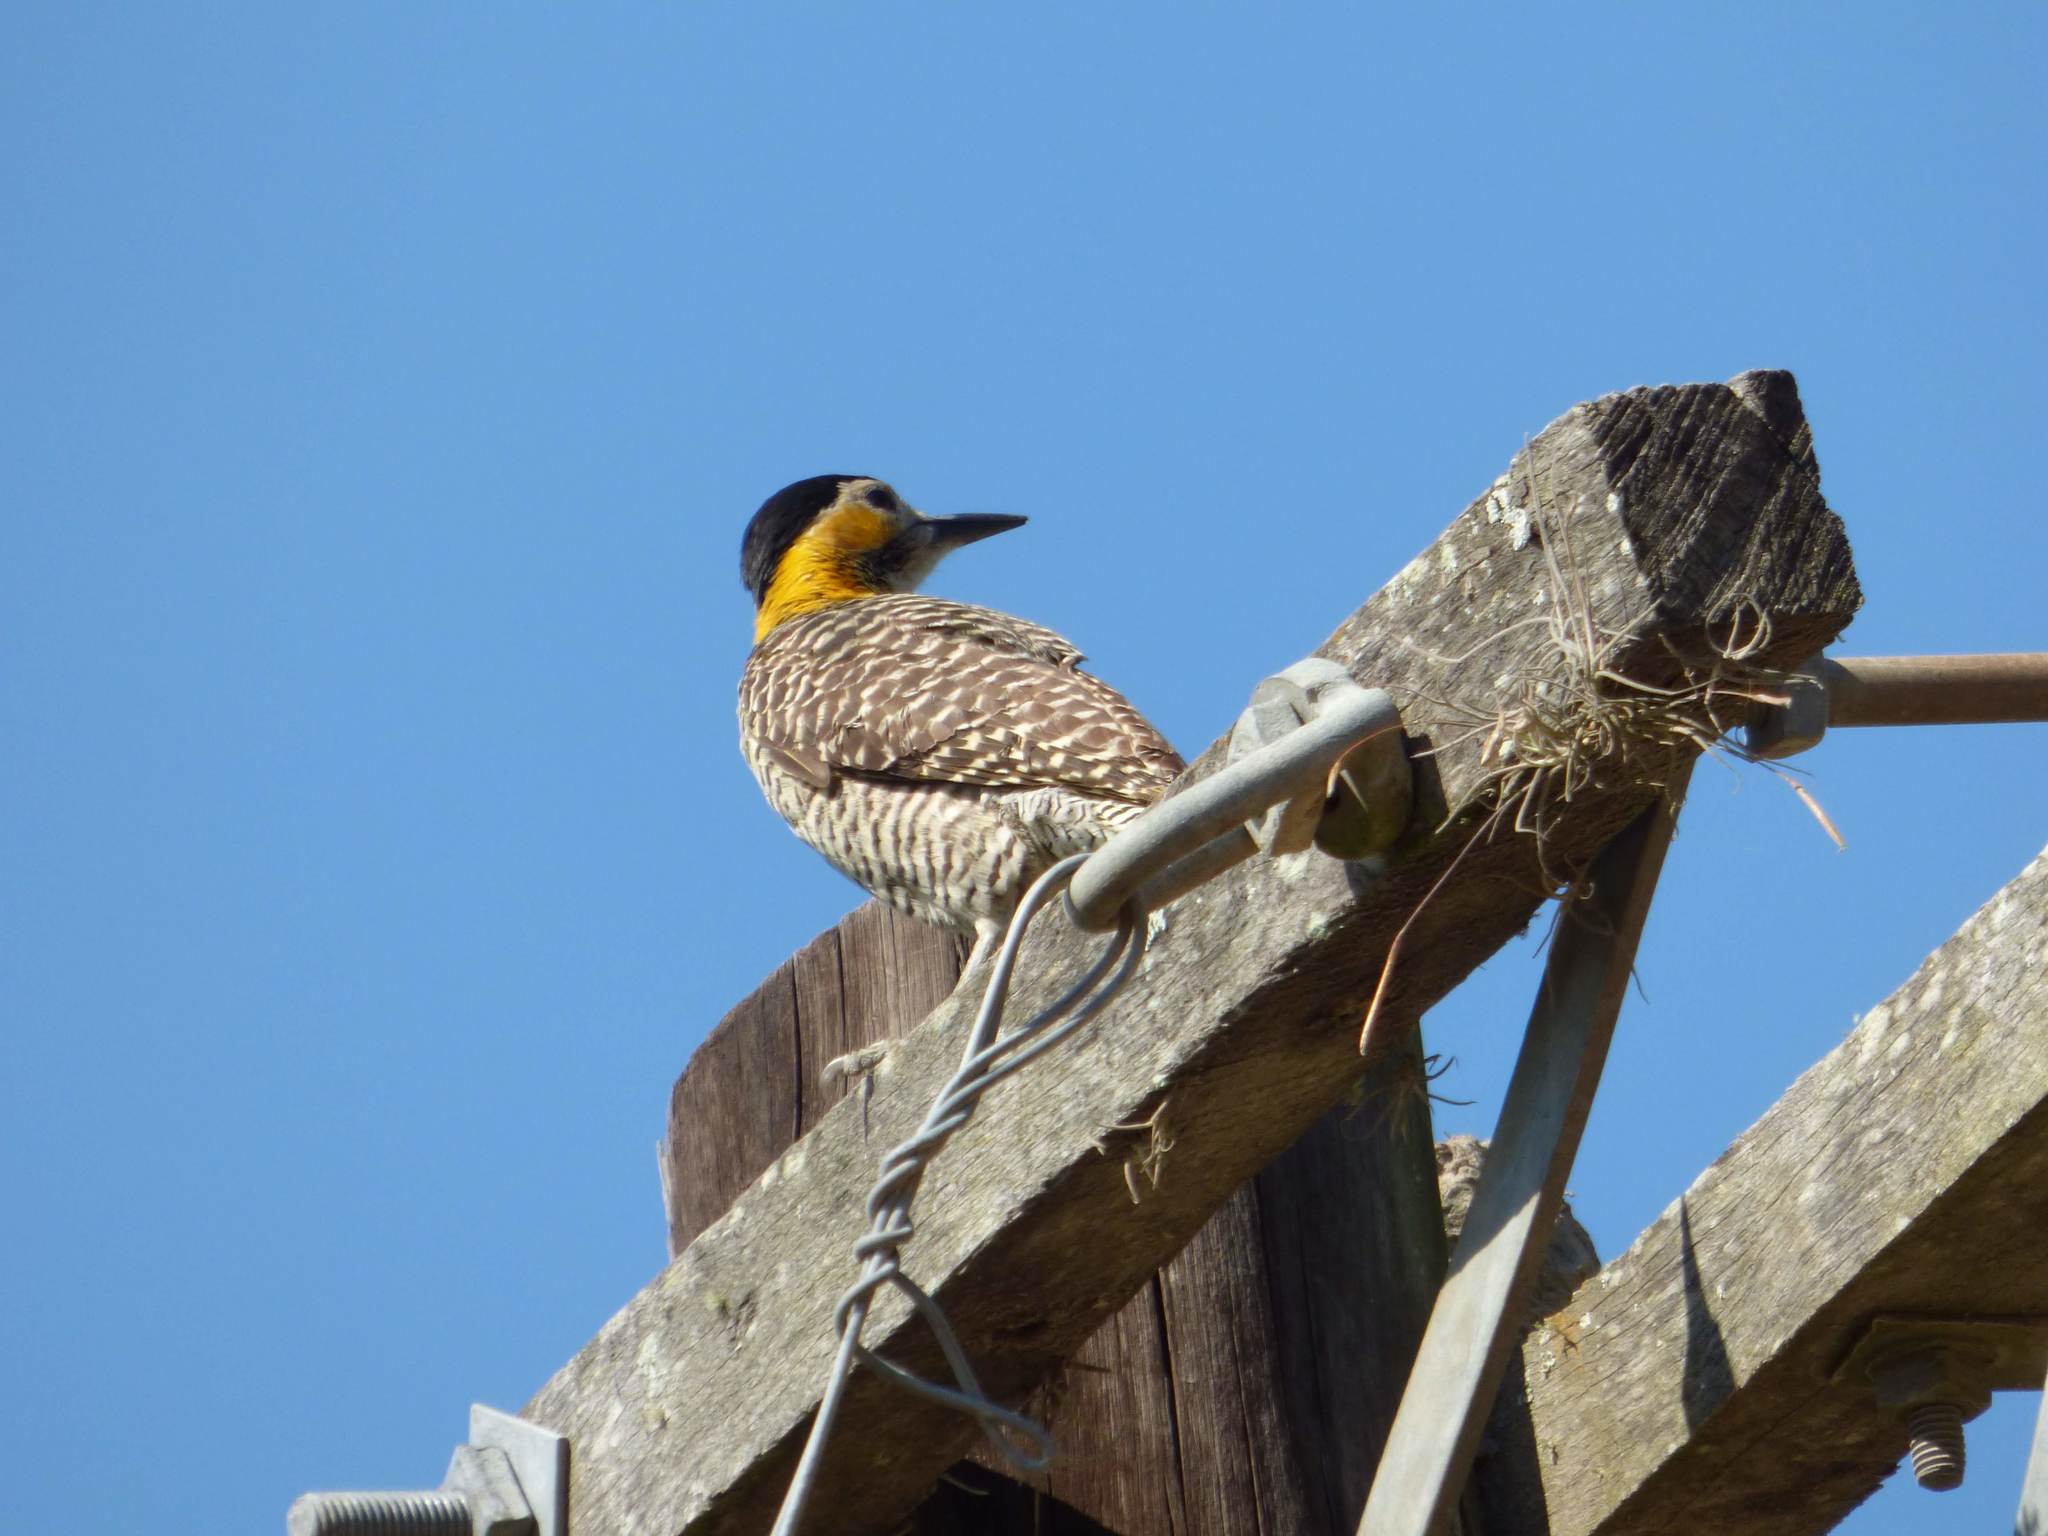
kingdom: Animalia
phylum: Chordata
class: Aves
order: Piciformes
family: Picidae
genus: Colaptes
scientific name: Colaptes campestris
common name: Campo flicker
